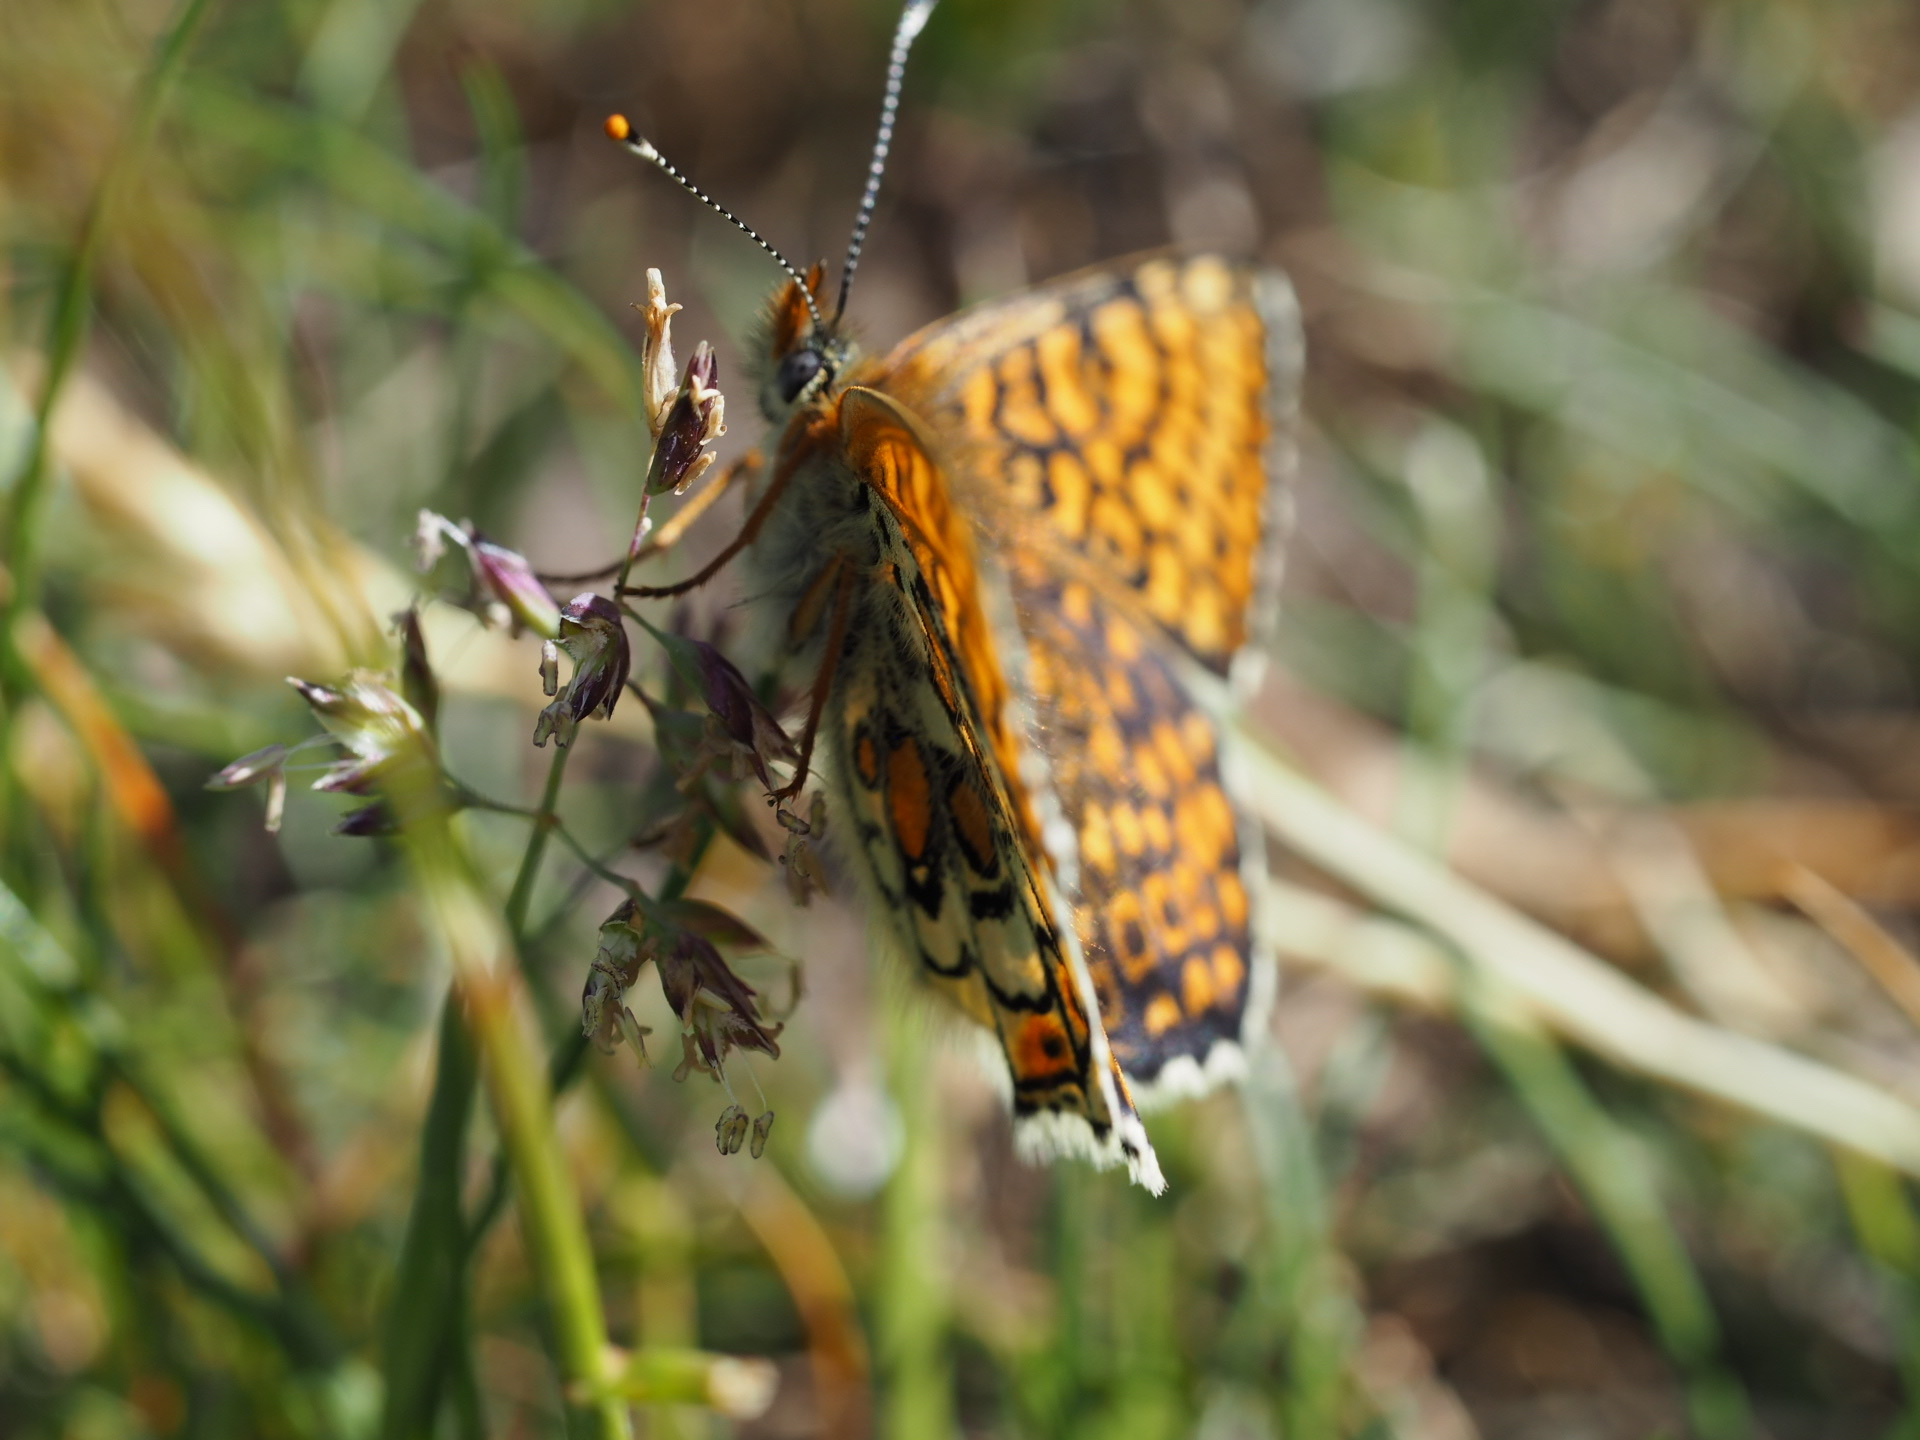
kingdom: Animalia
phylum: Arthropoda
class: Insecta
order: Lepidoptera
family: Nymphalidae
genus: Melitaea
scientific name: Melitaea cinxia
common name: Glanville fritillary
